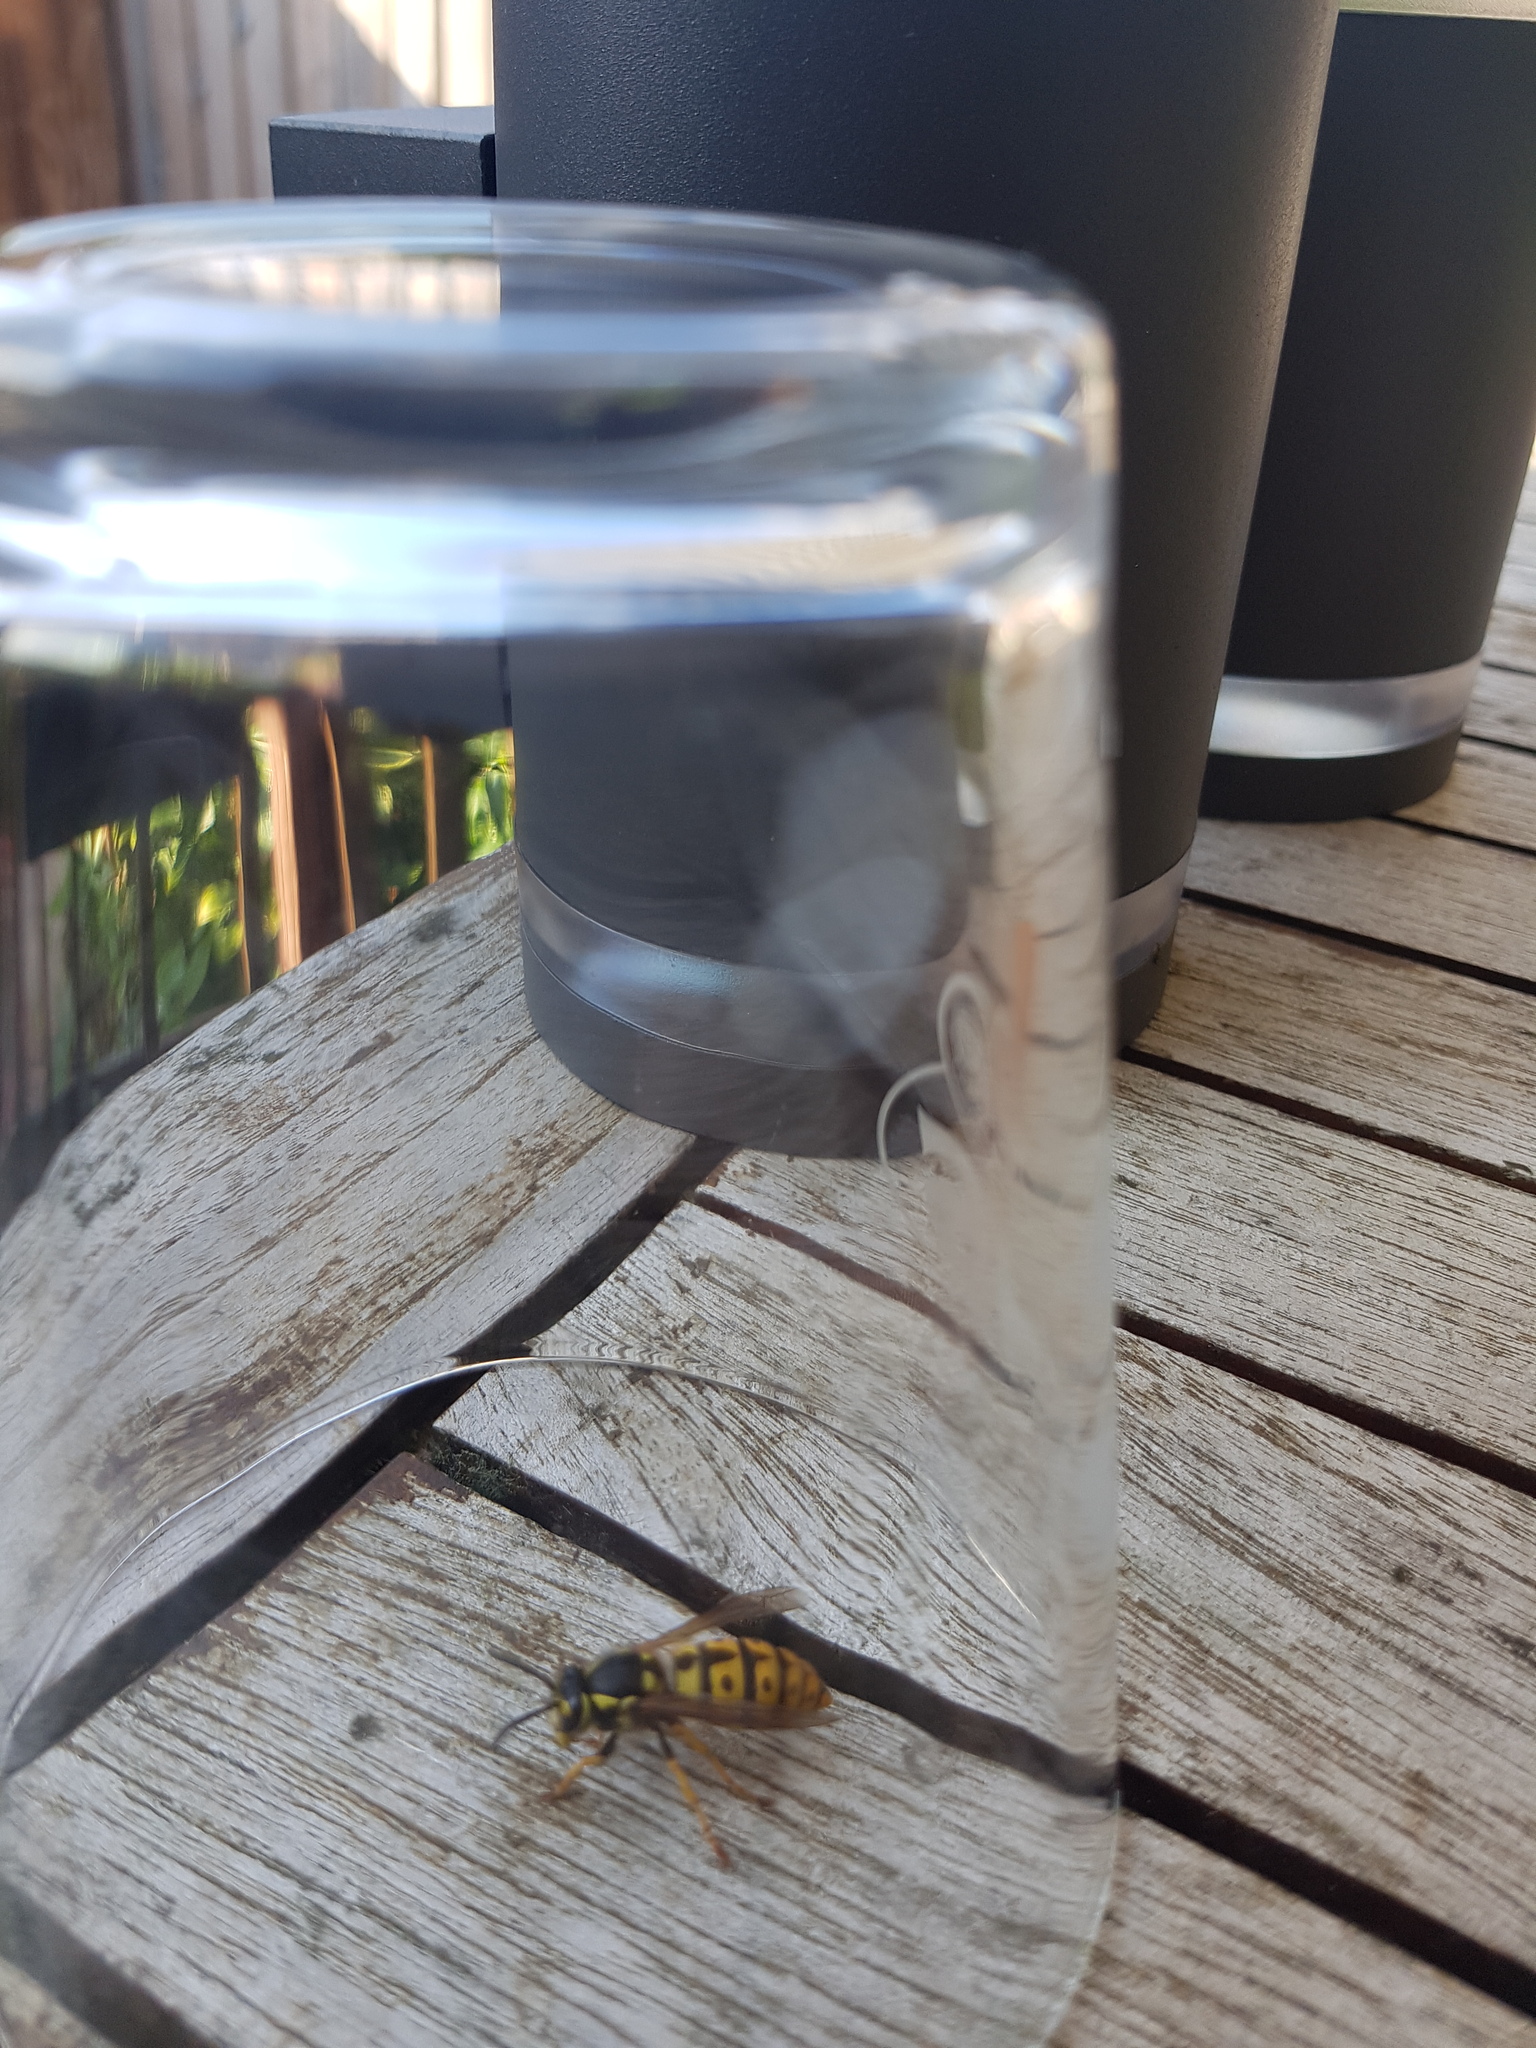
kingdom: Animalia
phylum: Arthropoda
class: Insecta
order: Hymenoptera
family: Vespidae
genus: Vespula
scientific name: Vespula germanica
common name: German wasp
